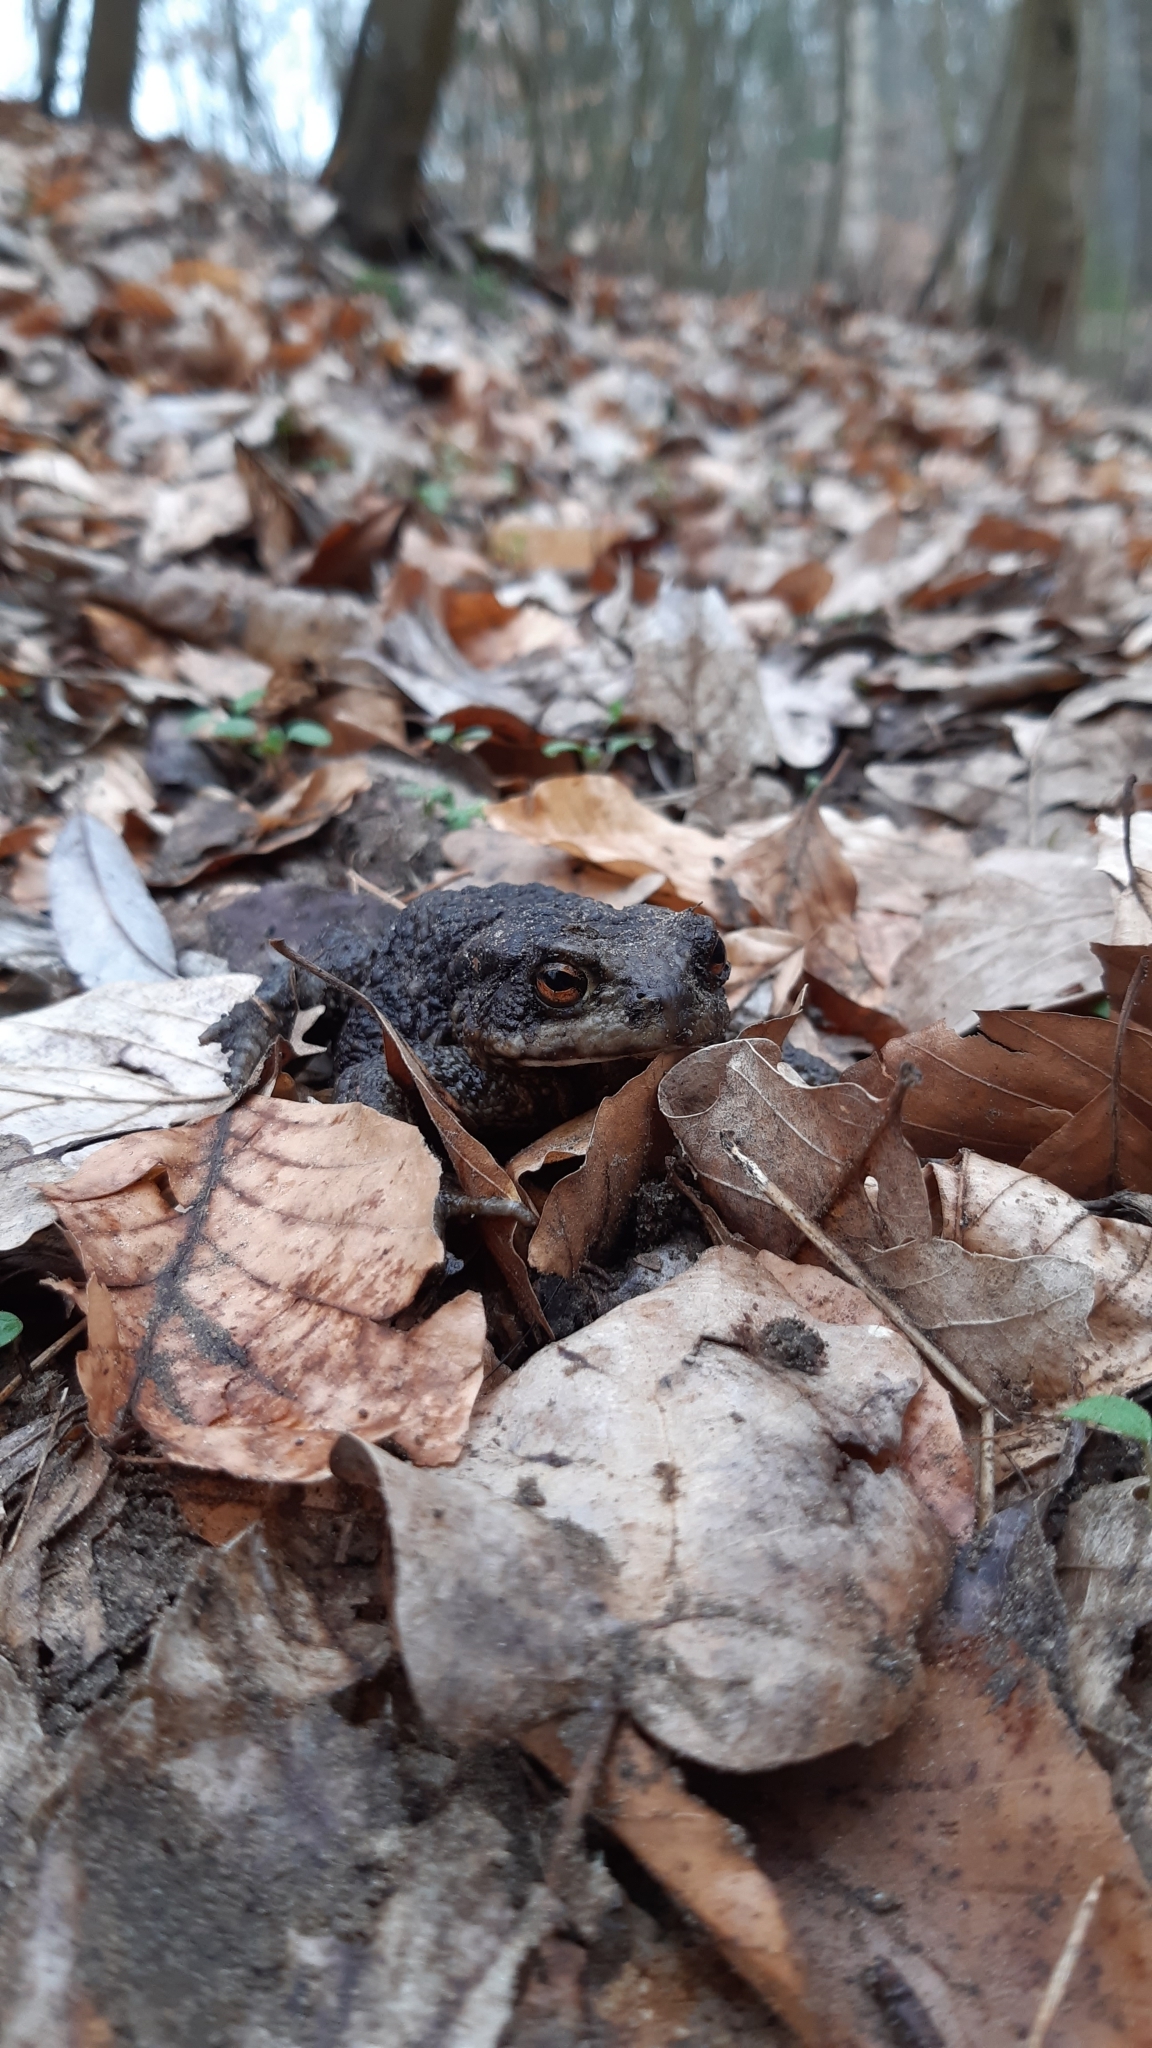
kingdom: Animalia
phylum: Chordata
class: Amphibia
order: Anura
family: Bufonidae
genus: Bufo
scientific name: Bufo bufo
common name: Common toad
